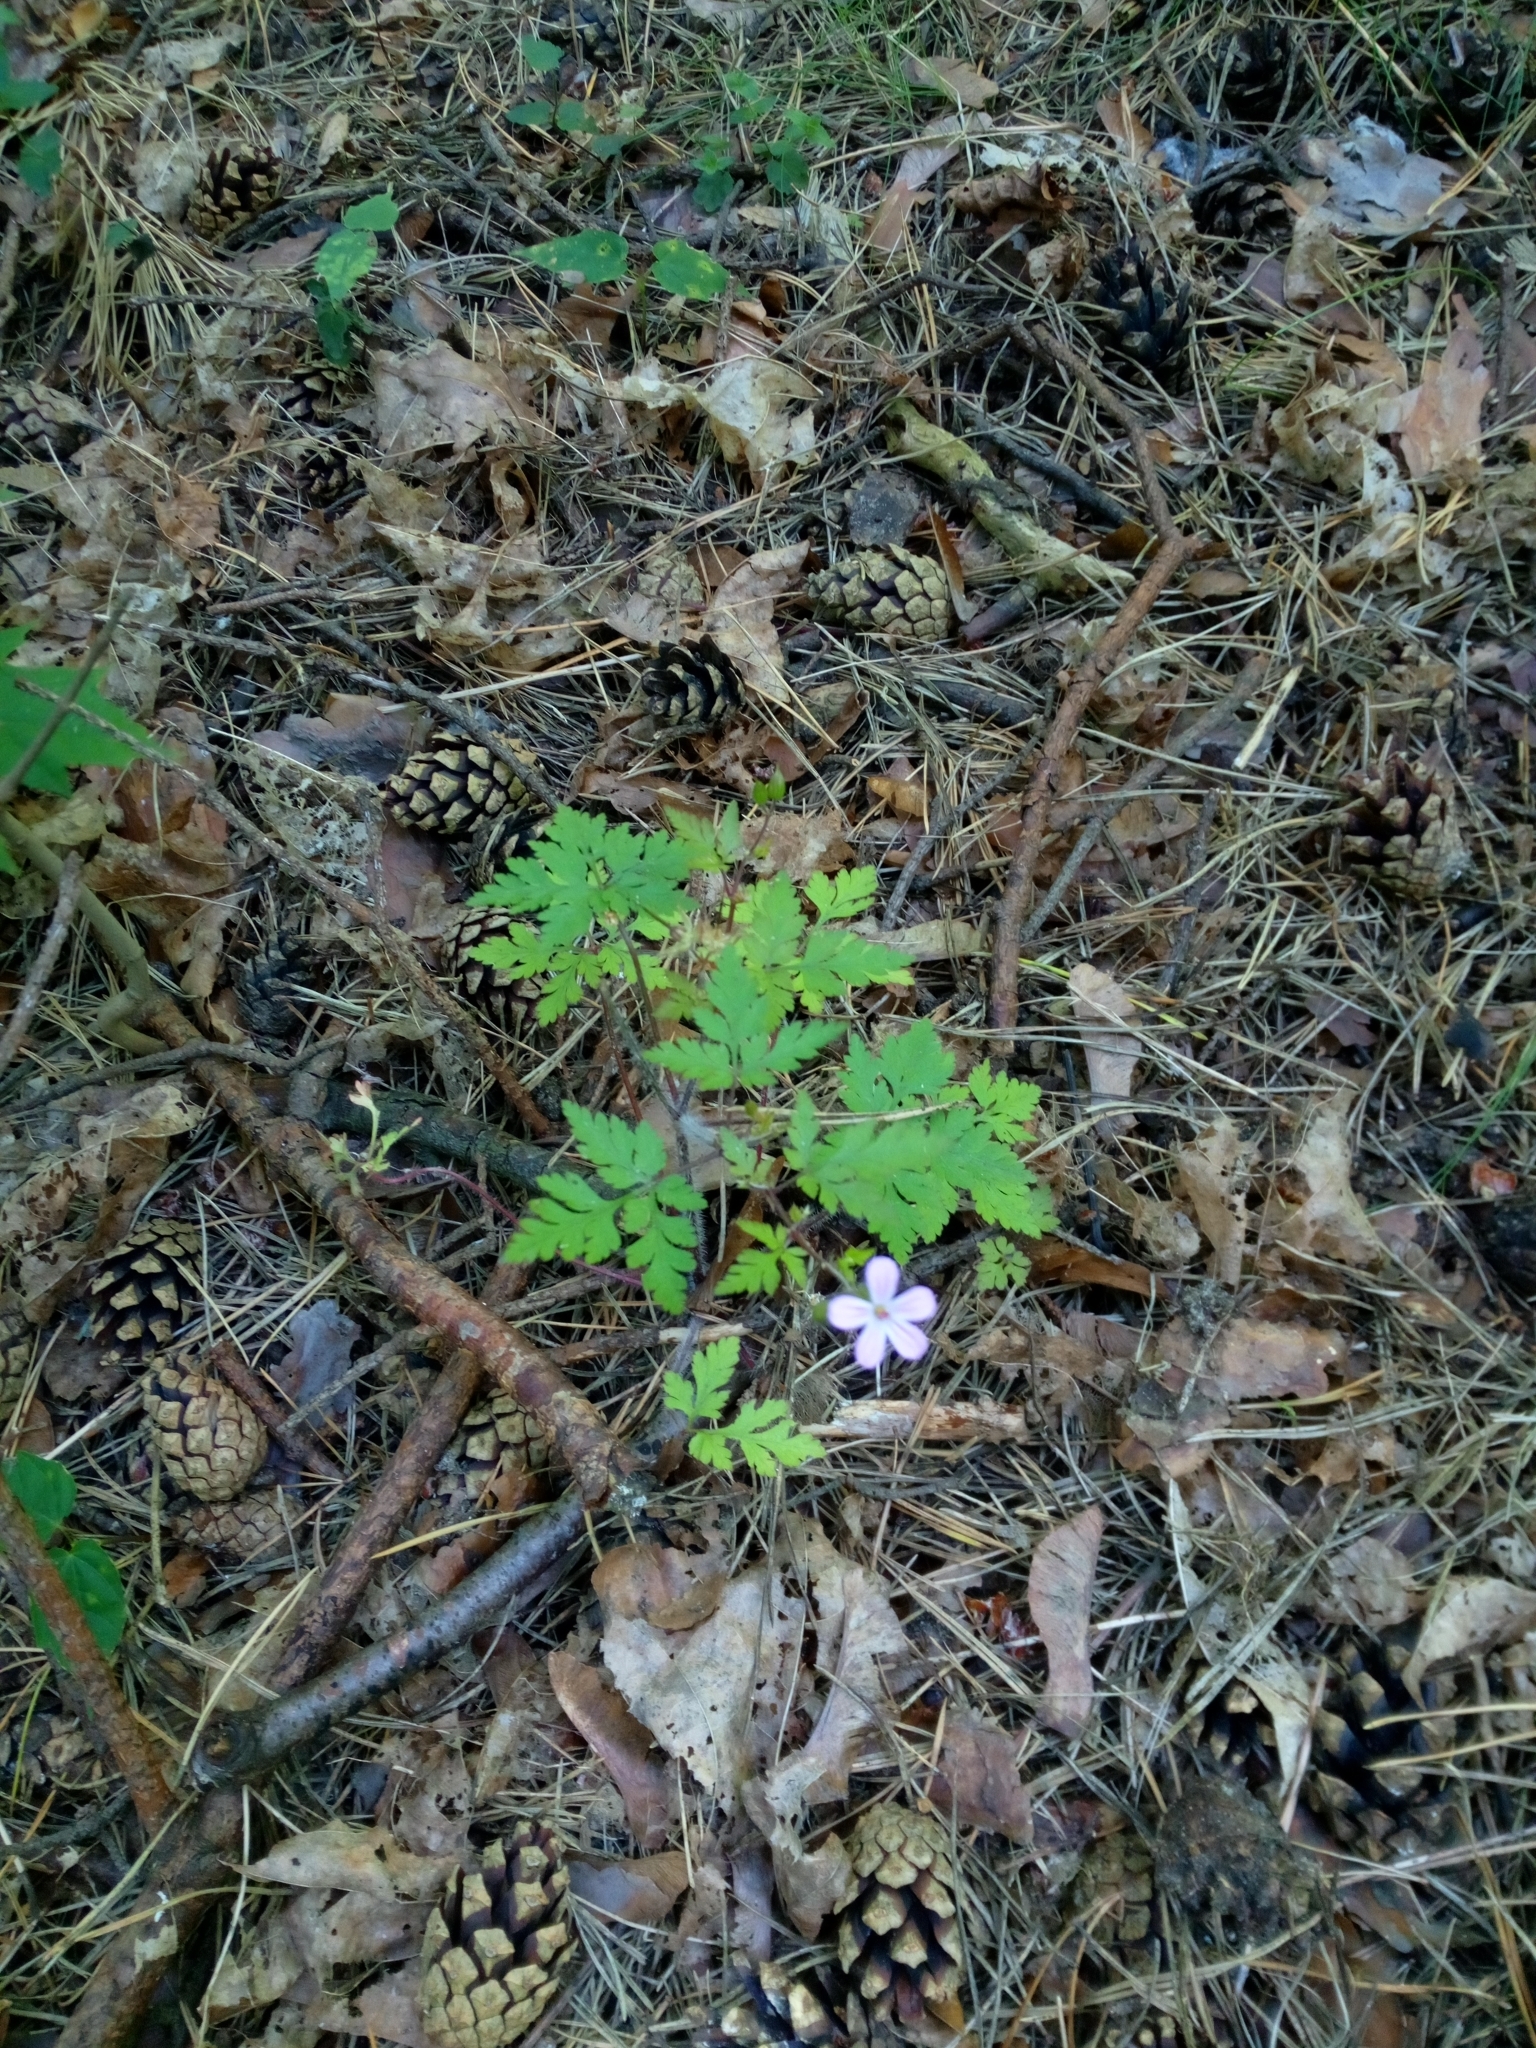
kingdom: Plantae
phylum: Tracheophyta
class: Magnoliopsida
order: Geraniales
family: Geraniaceae
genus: Geranium
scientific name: Geranium robertianum
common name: Herb-robert
